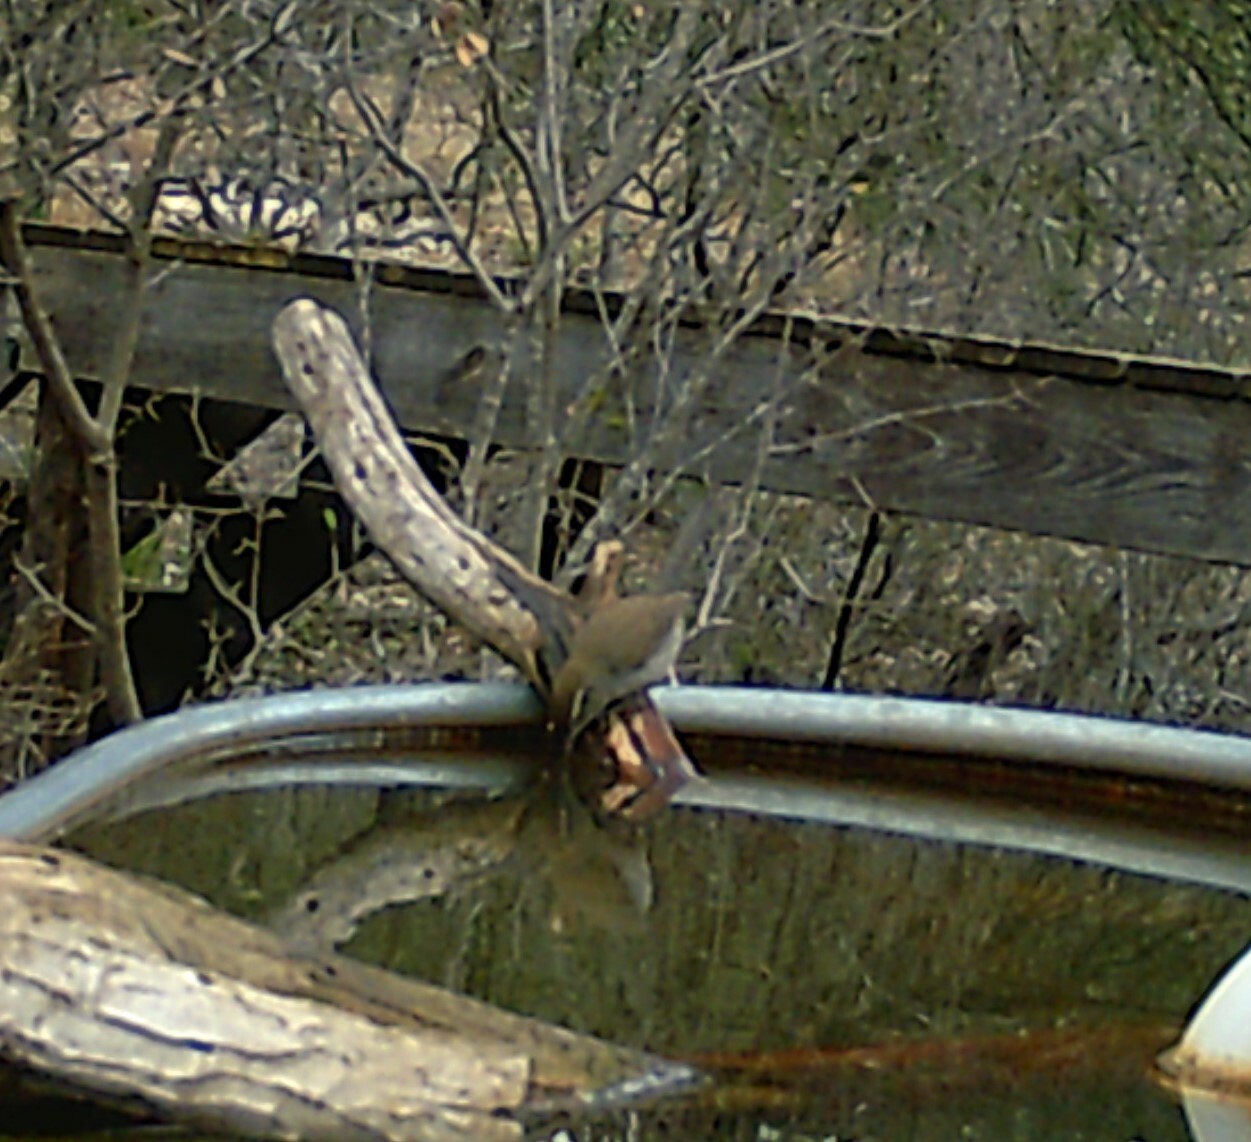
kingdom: Animalia
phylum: Chordata
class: Aves
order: Passeriformes
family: Troglodytidae
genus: Thryomanes
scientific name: Thryomanes bewickii
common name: Bewick's wren
